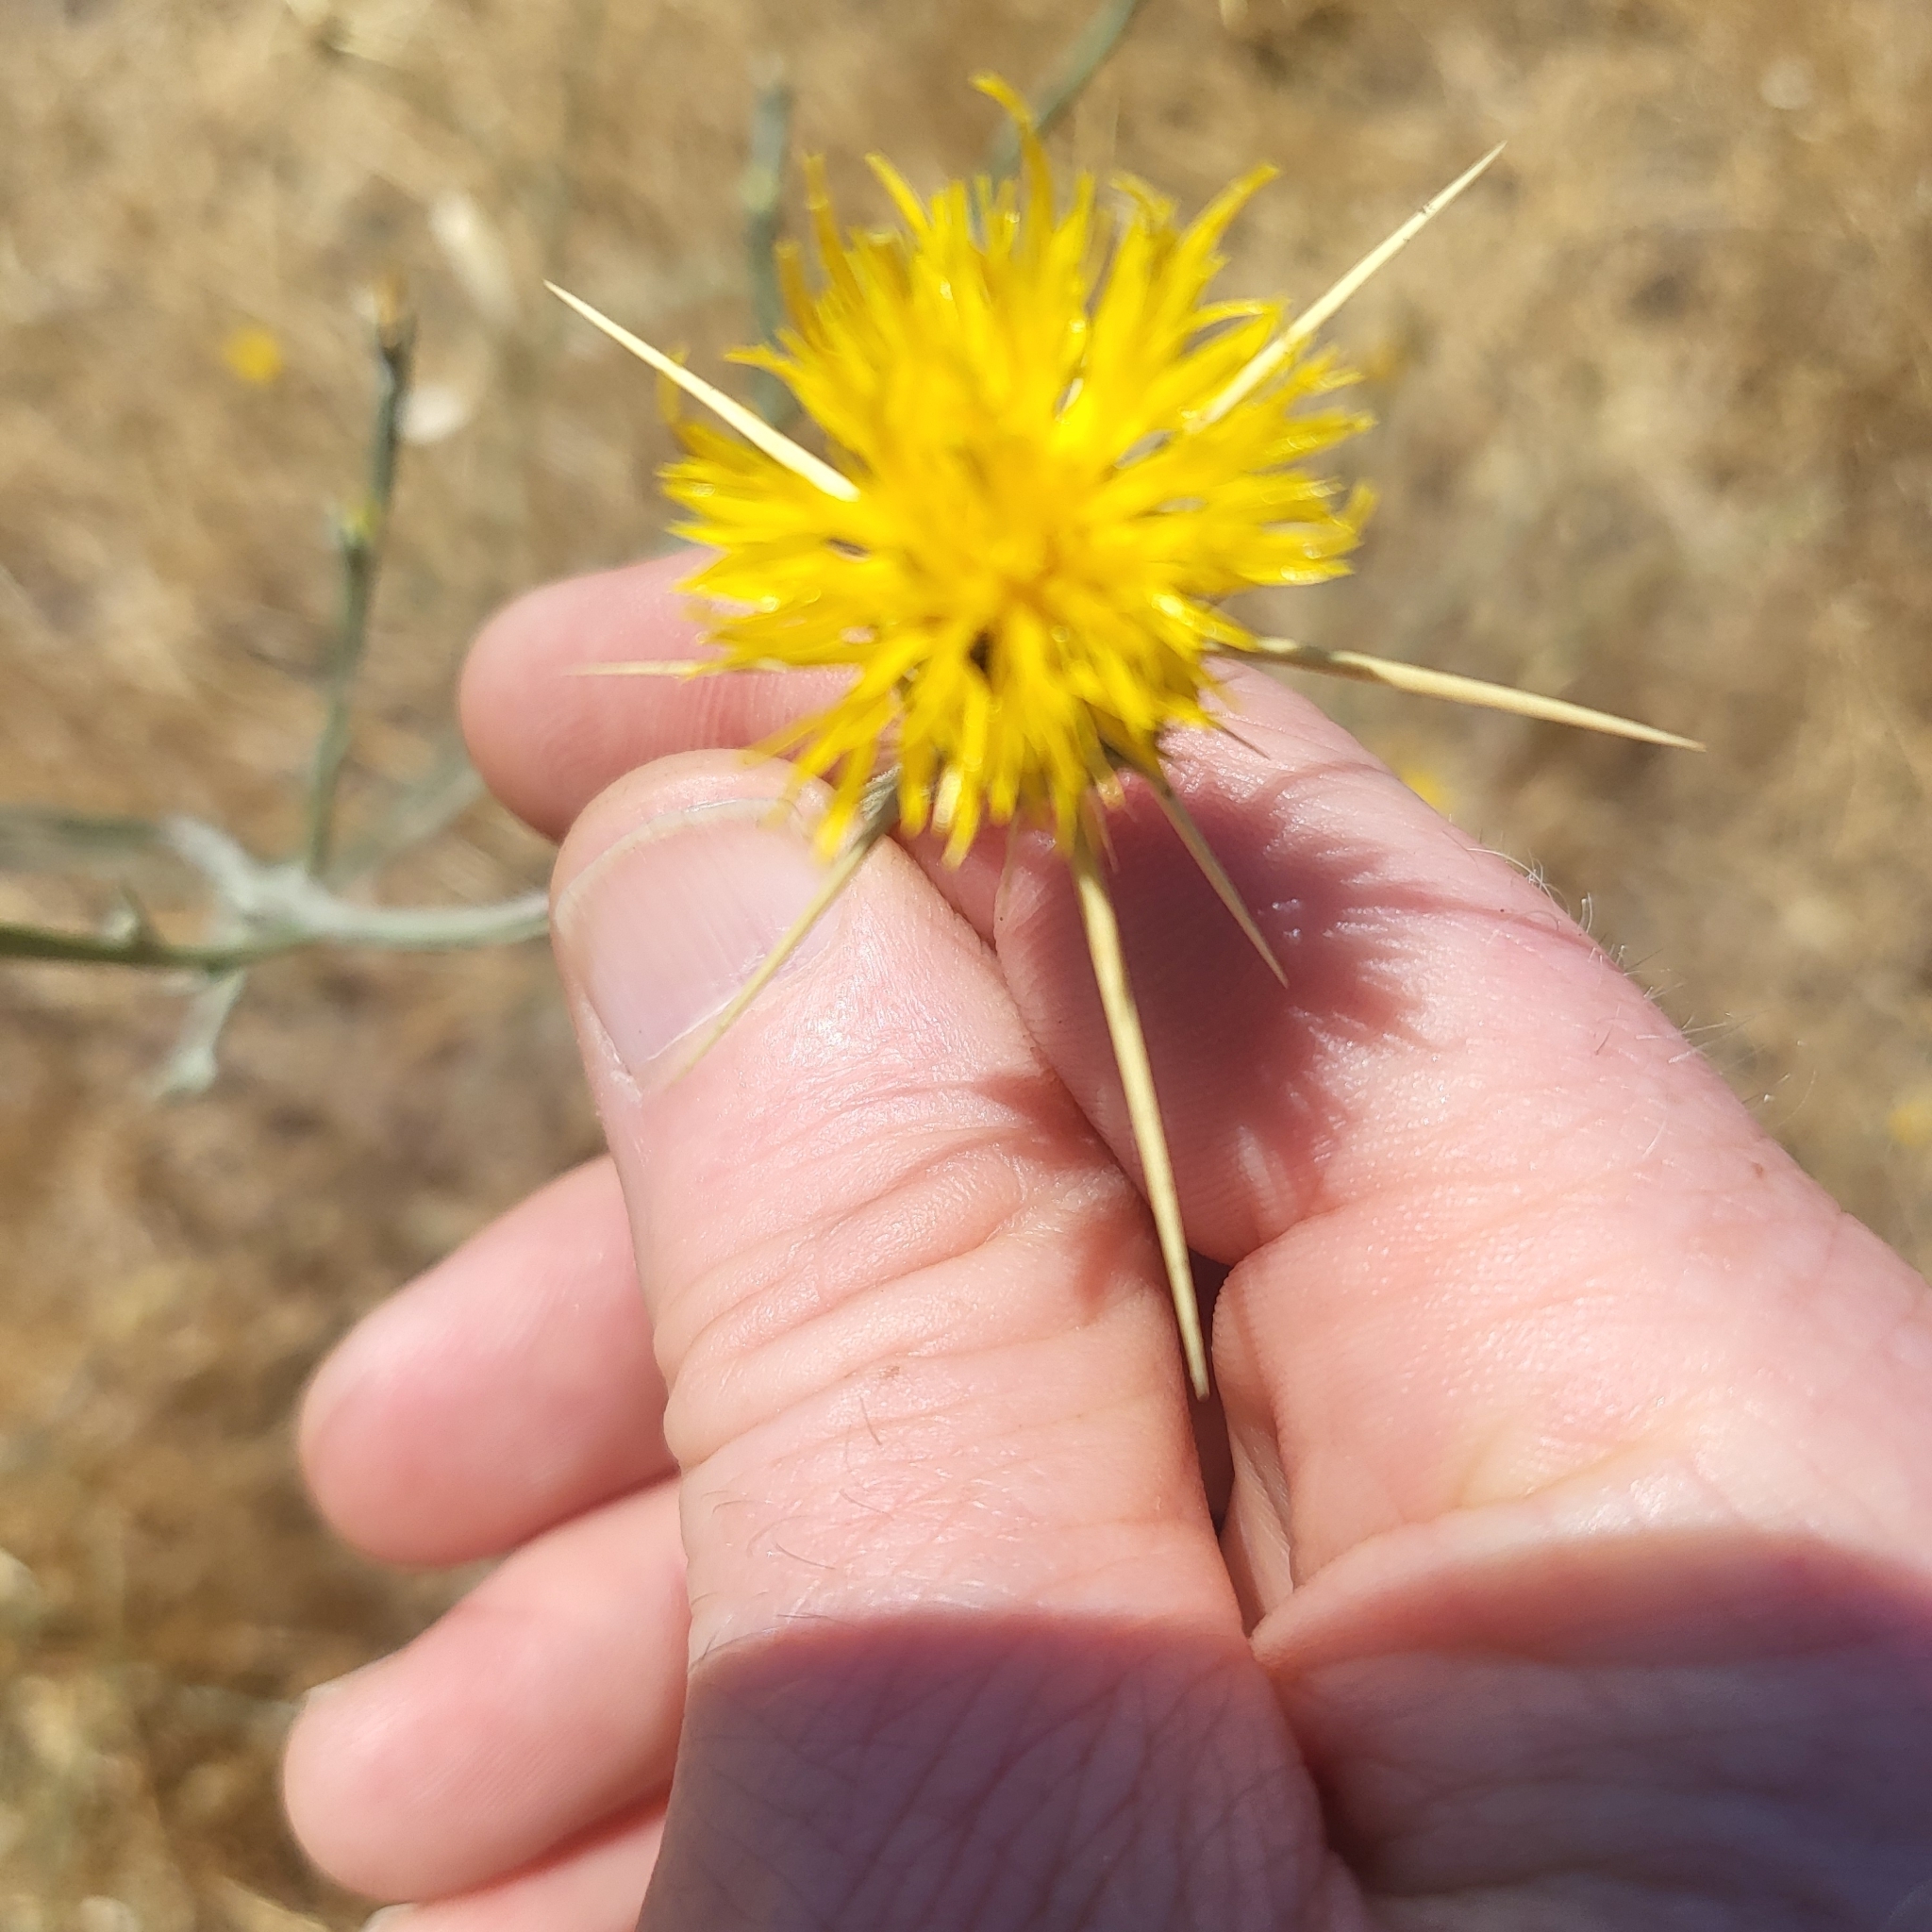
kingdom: Plantae
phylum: Tracheophyta
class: Magnoliopsida
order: Asterales
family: Asteraceae
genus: Centaurea
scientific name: Centaurea solstitialis
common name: Yellow star-thistle
